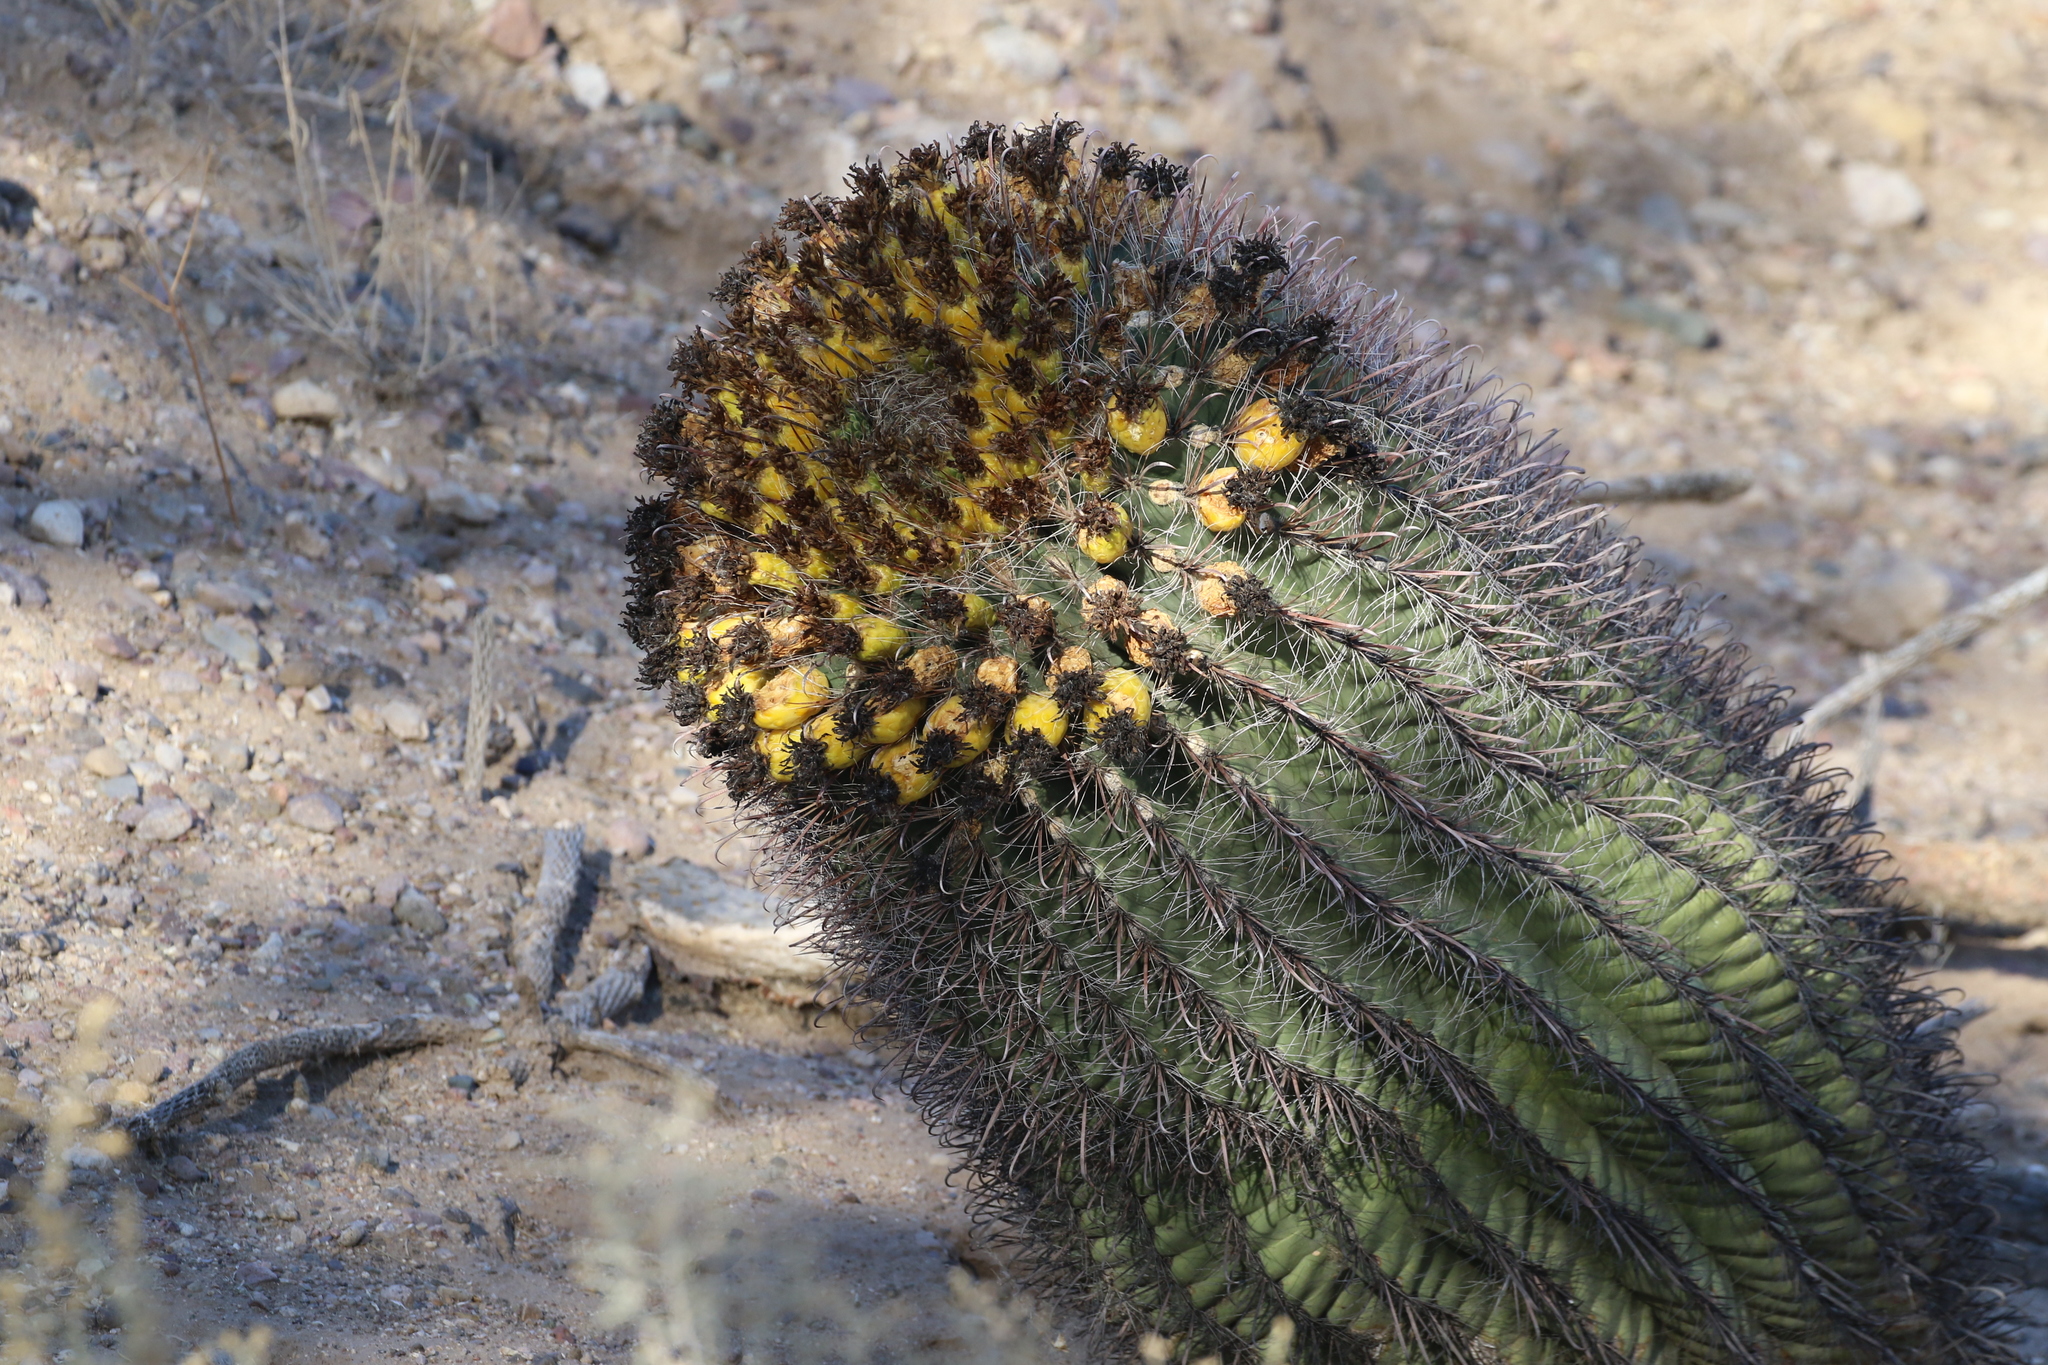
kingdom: Plantae
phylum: Tracheophyta
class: Magnoliopsida
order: Caryophyllales
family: Cactaceae
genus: Ferocactus
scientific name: Ferocactus wislizeni
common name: Candy barrel cactus
